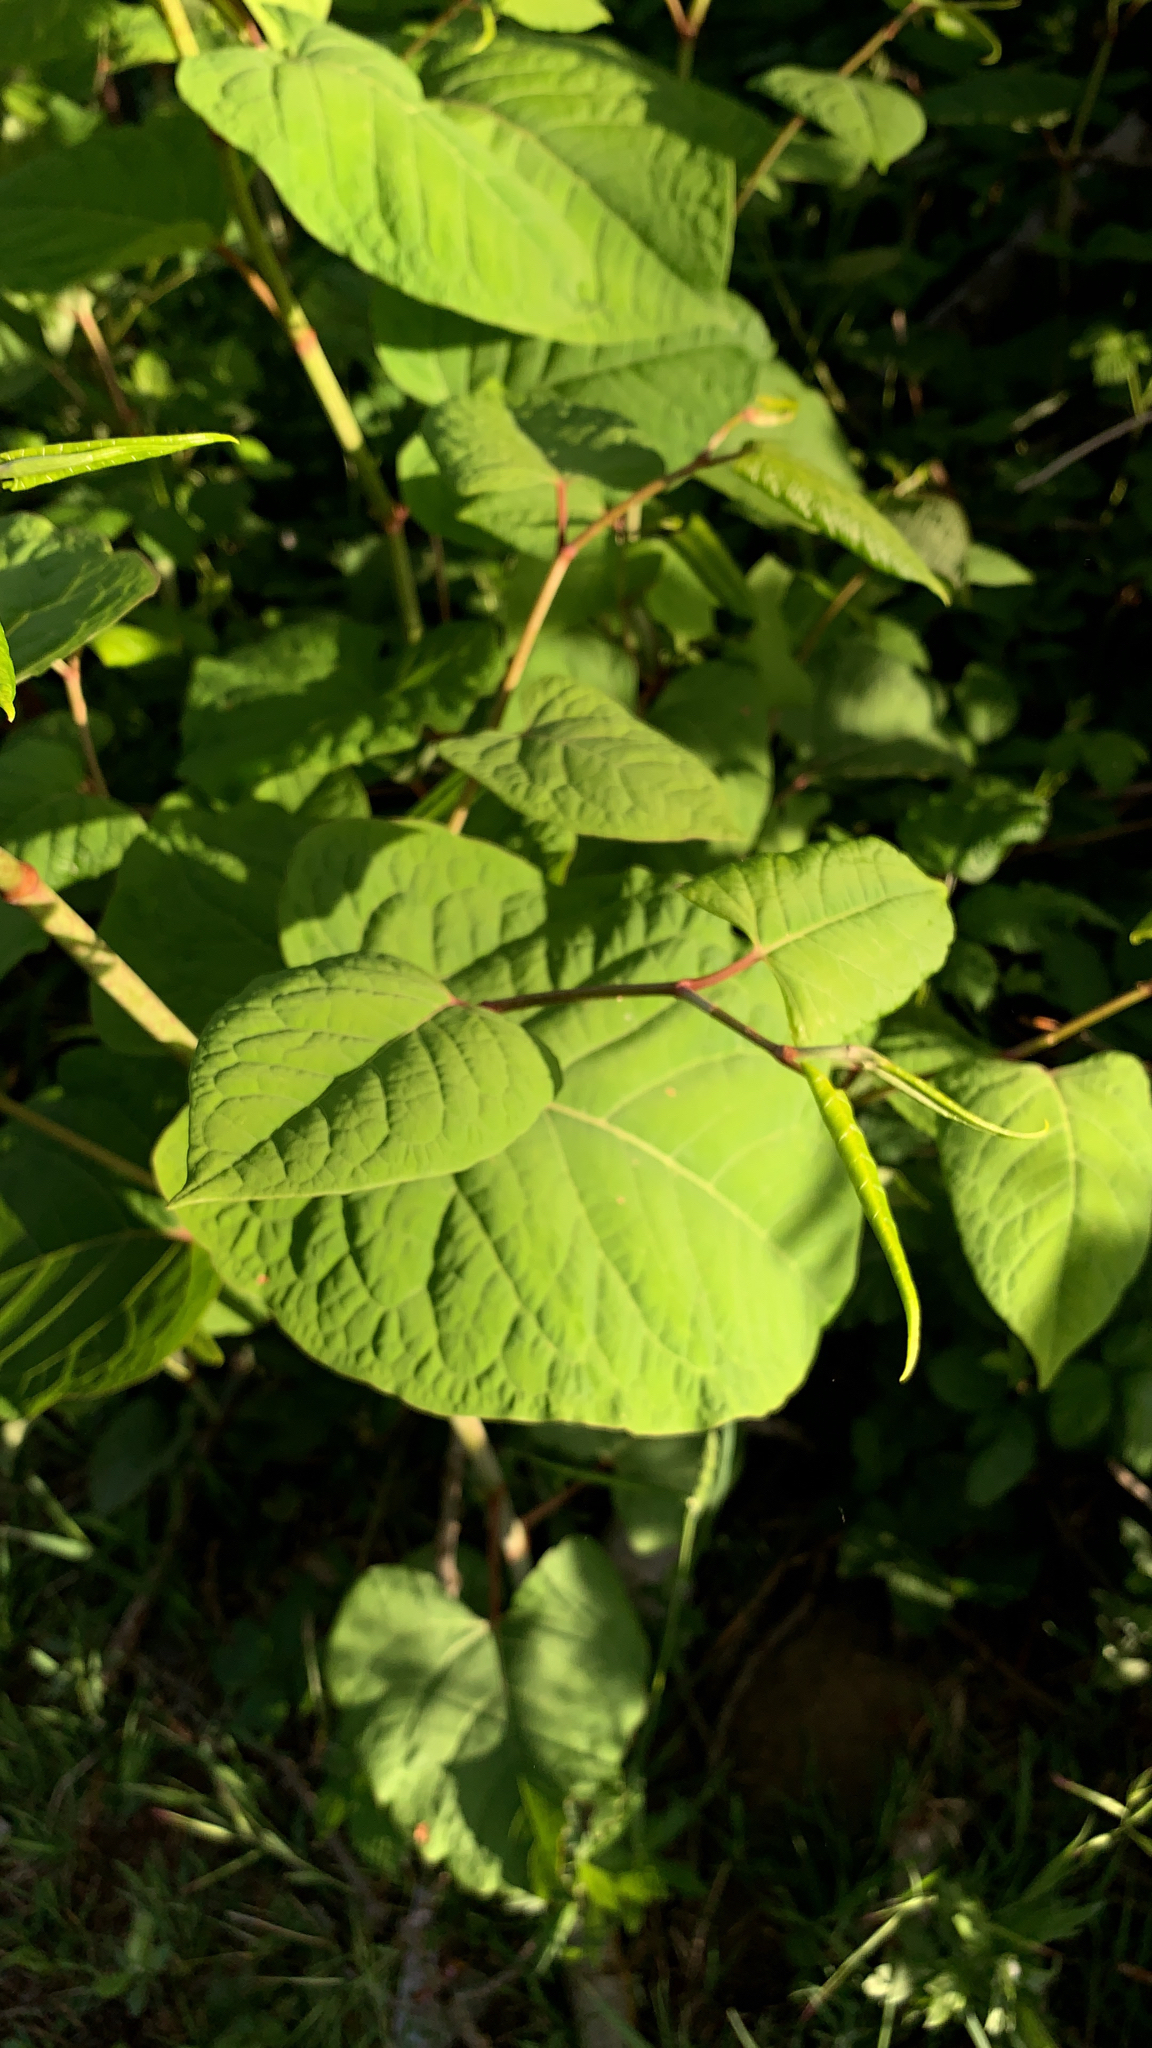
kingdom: Plantae
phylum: Tracheophyta
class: Magnoliopsida
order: Caryophyllales
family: Polygonaceae
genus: Reynoutria
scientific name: Reynoutria japonica
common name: Japanese knotweed
